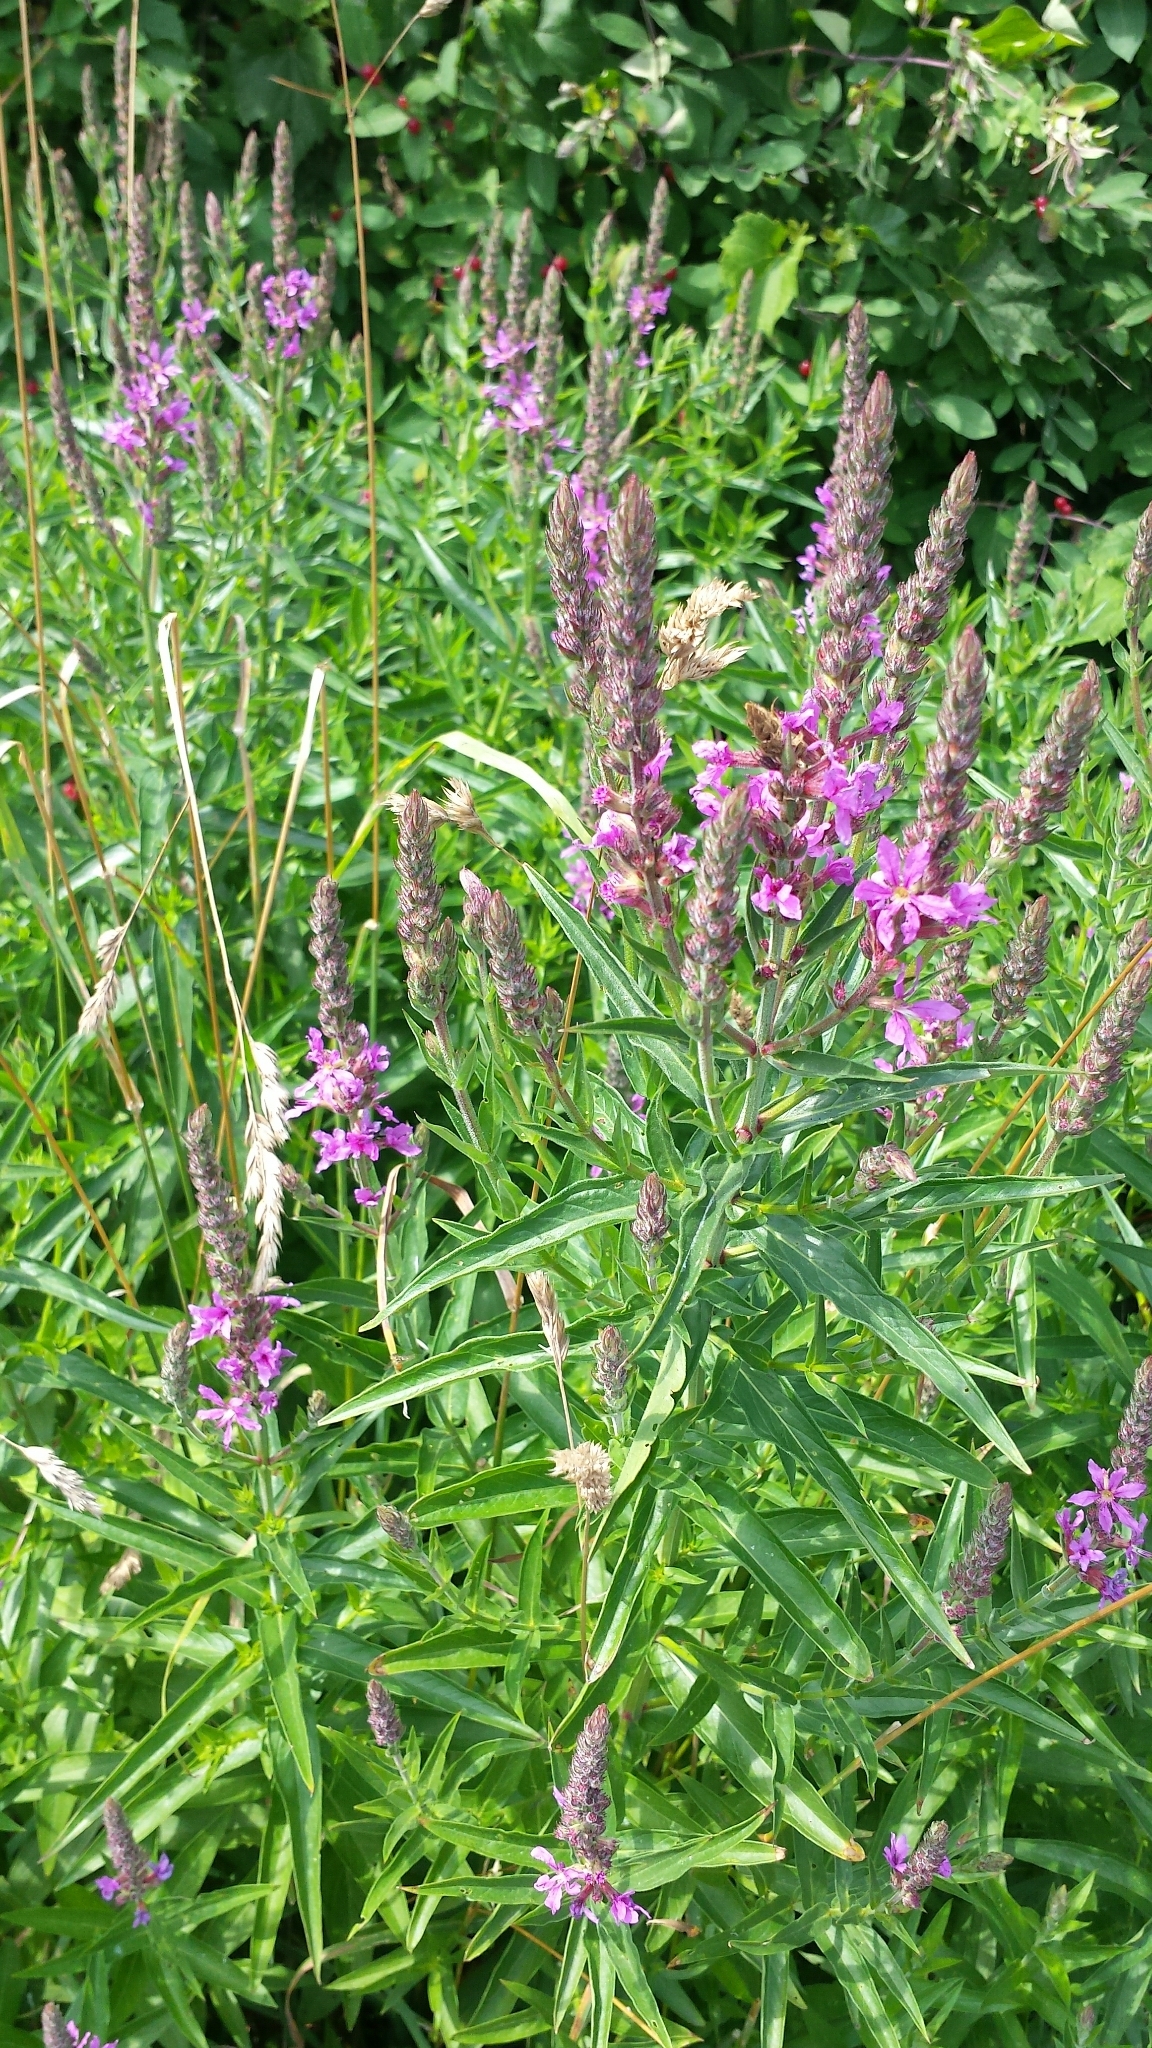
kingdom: Plantae
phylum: Tracheophyta
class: Magnoliopsida
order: Myrtales
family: Lythraceae
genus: Lythrum
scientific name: Lythrum salicaria
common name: Purple loosestrife
